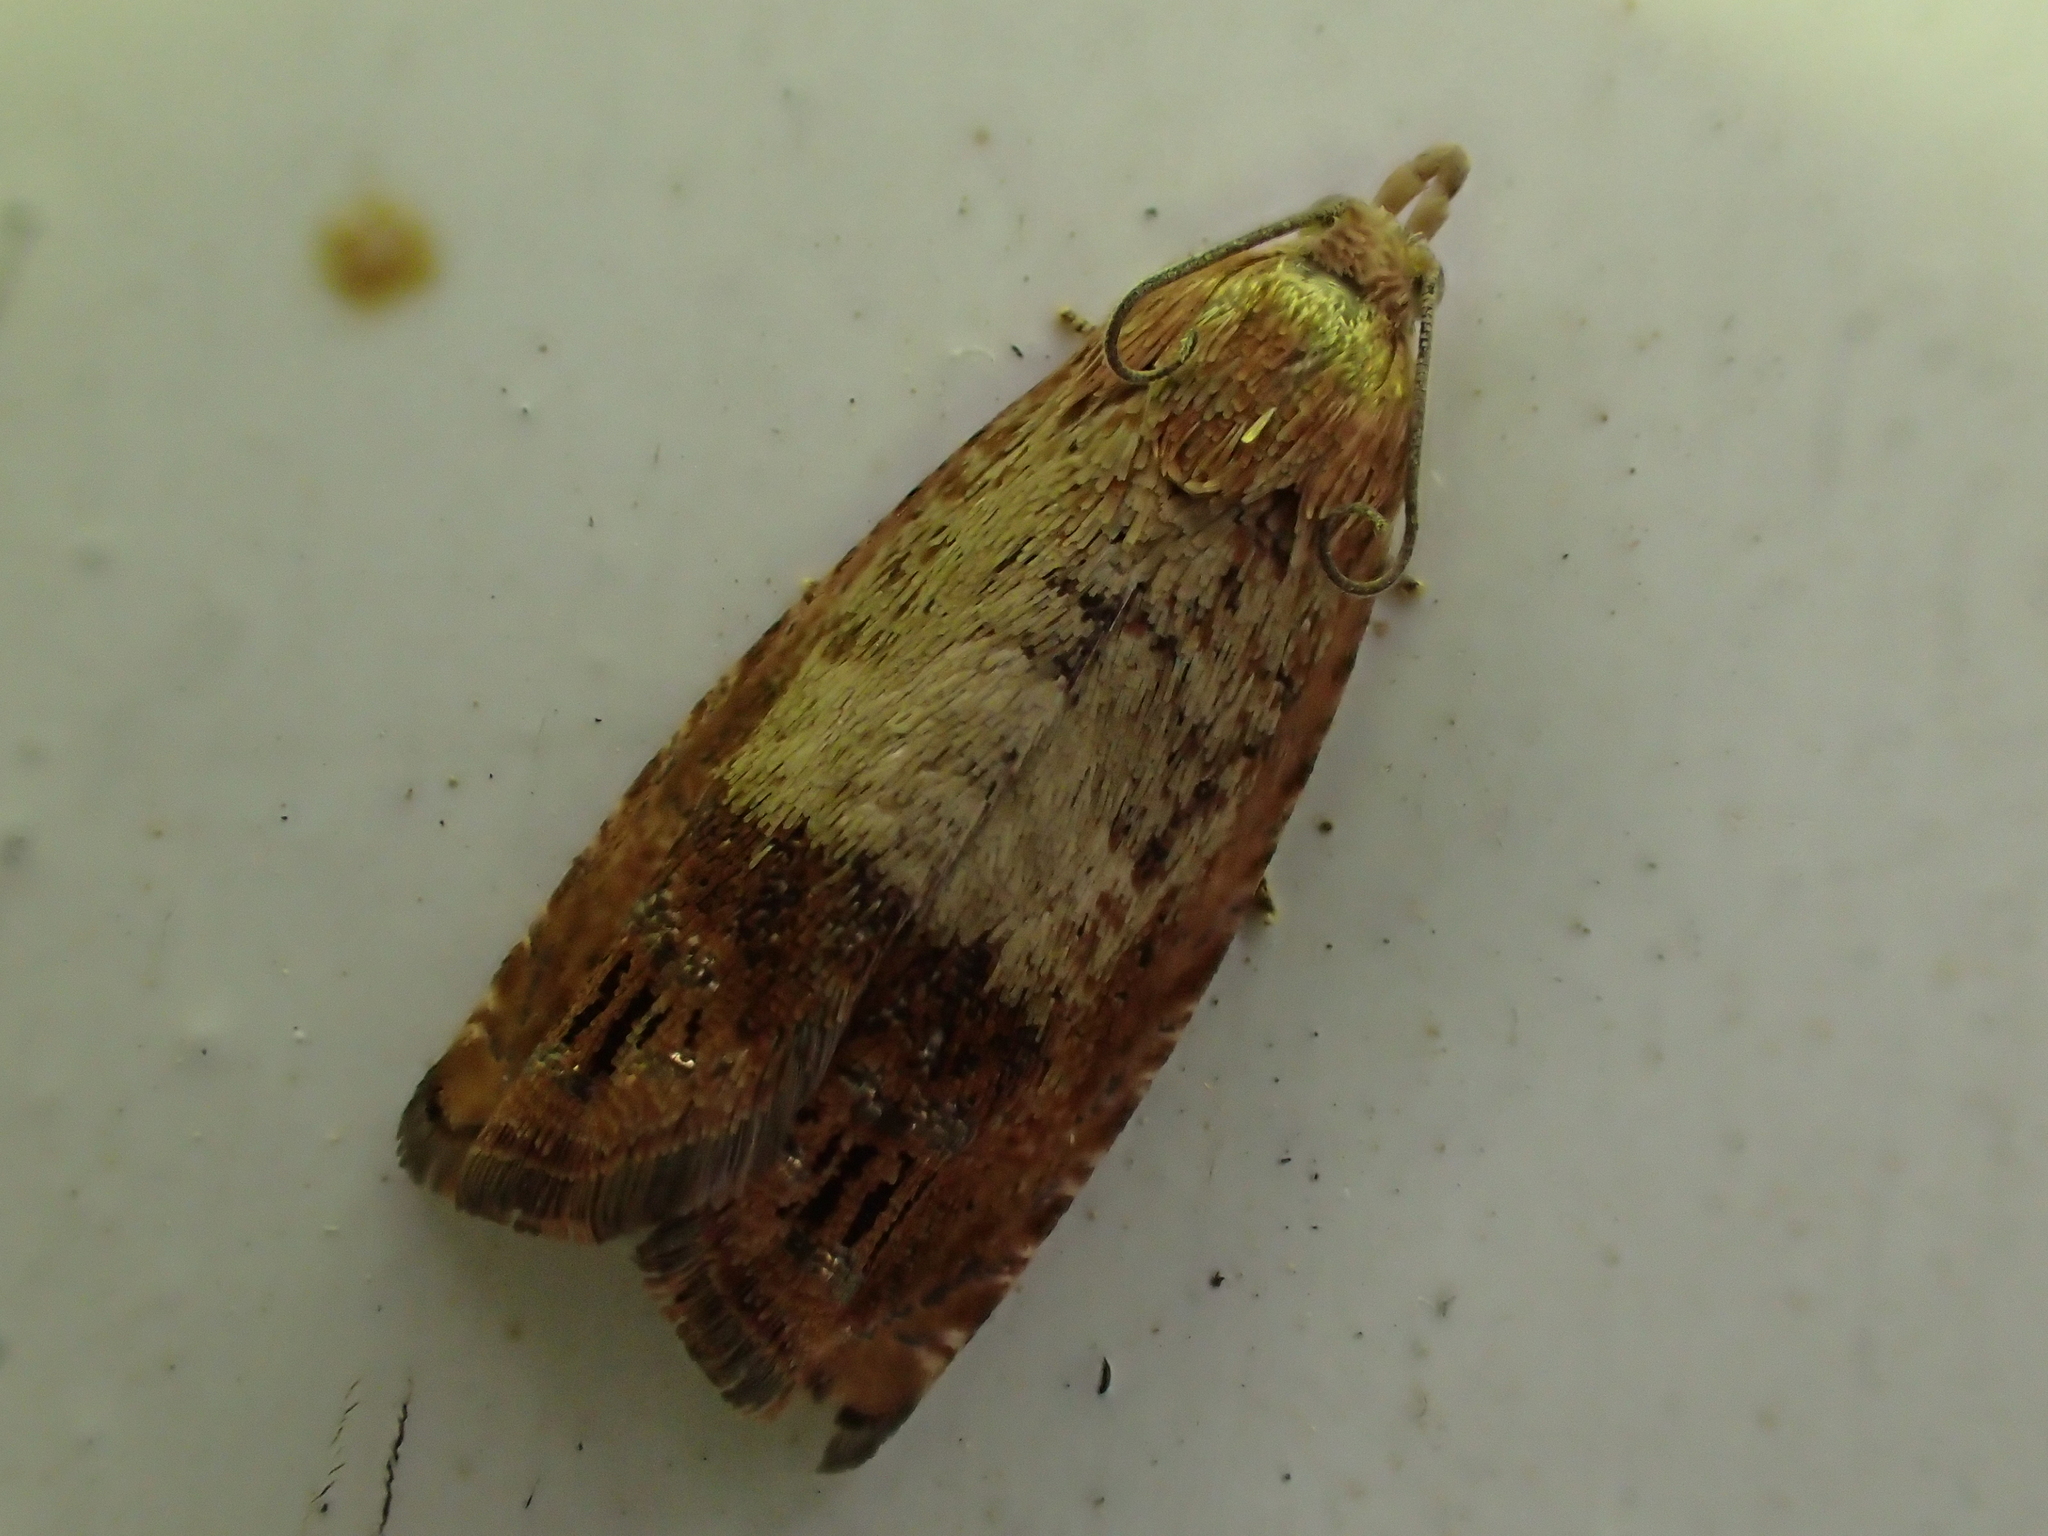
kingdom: Animalia
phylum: Arthropoda
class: Insecta
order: Lepidoptera
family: Tortricidae
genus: Cydia
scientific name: Cydia amplana
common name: Vagrant piercer
